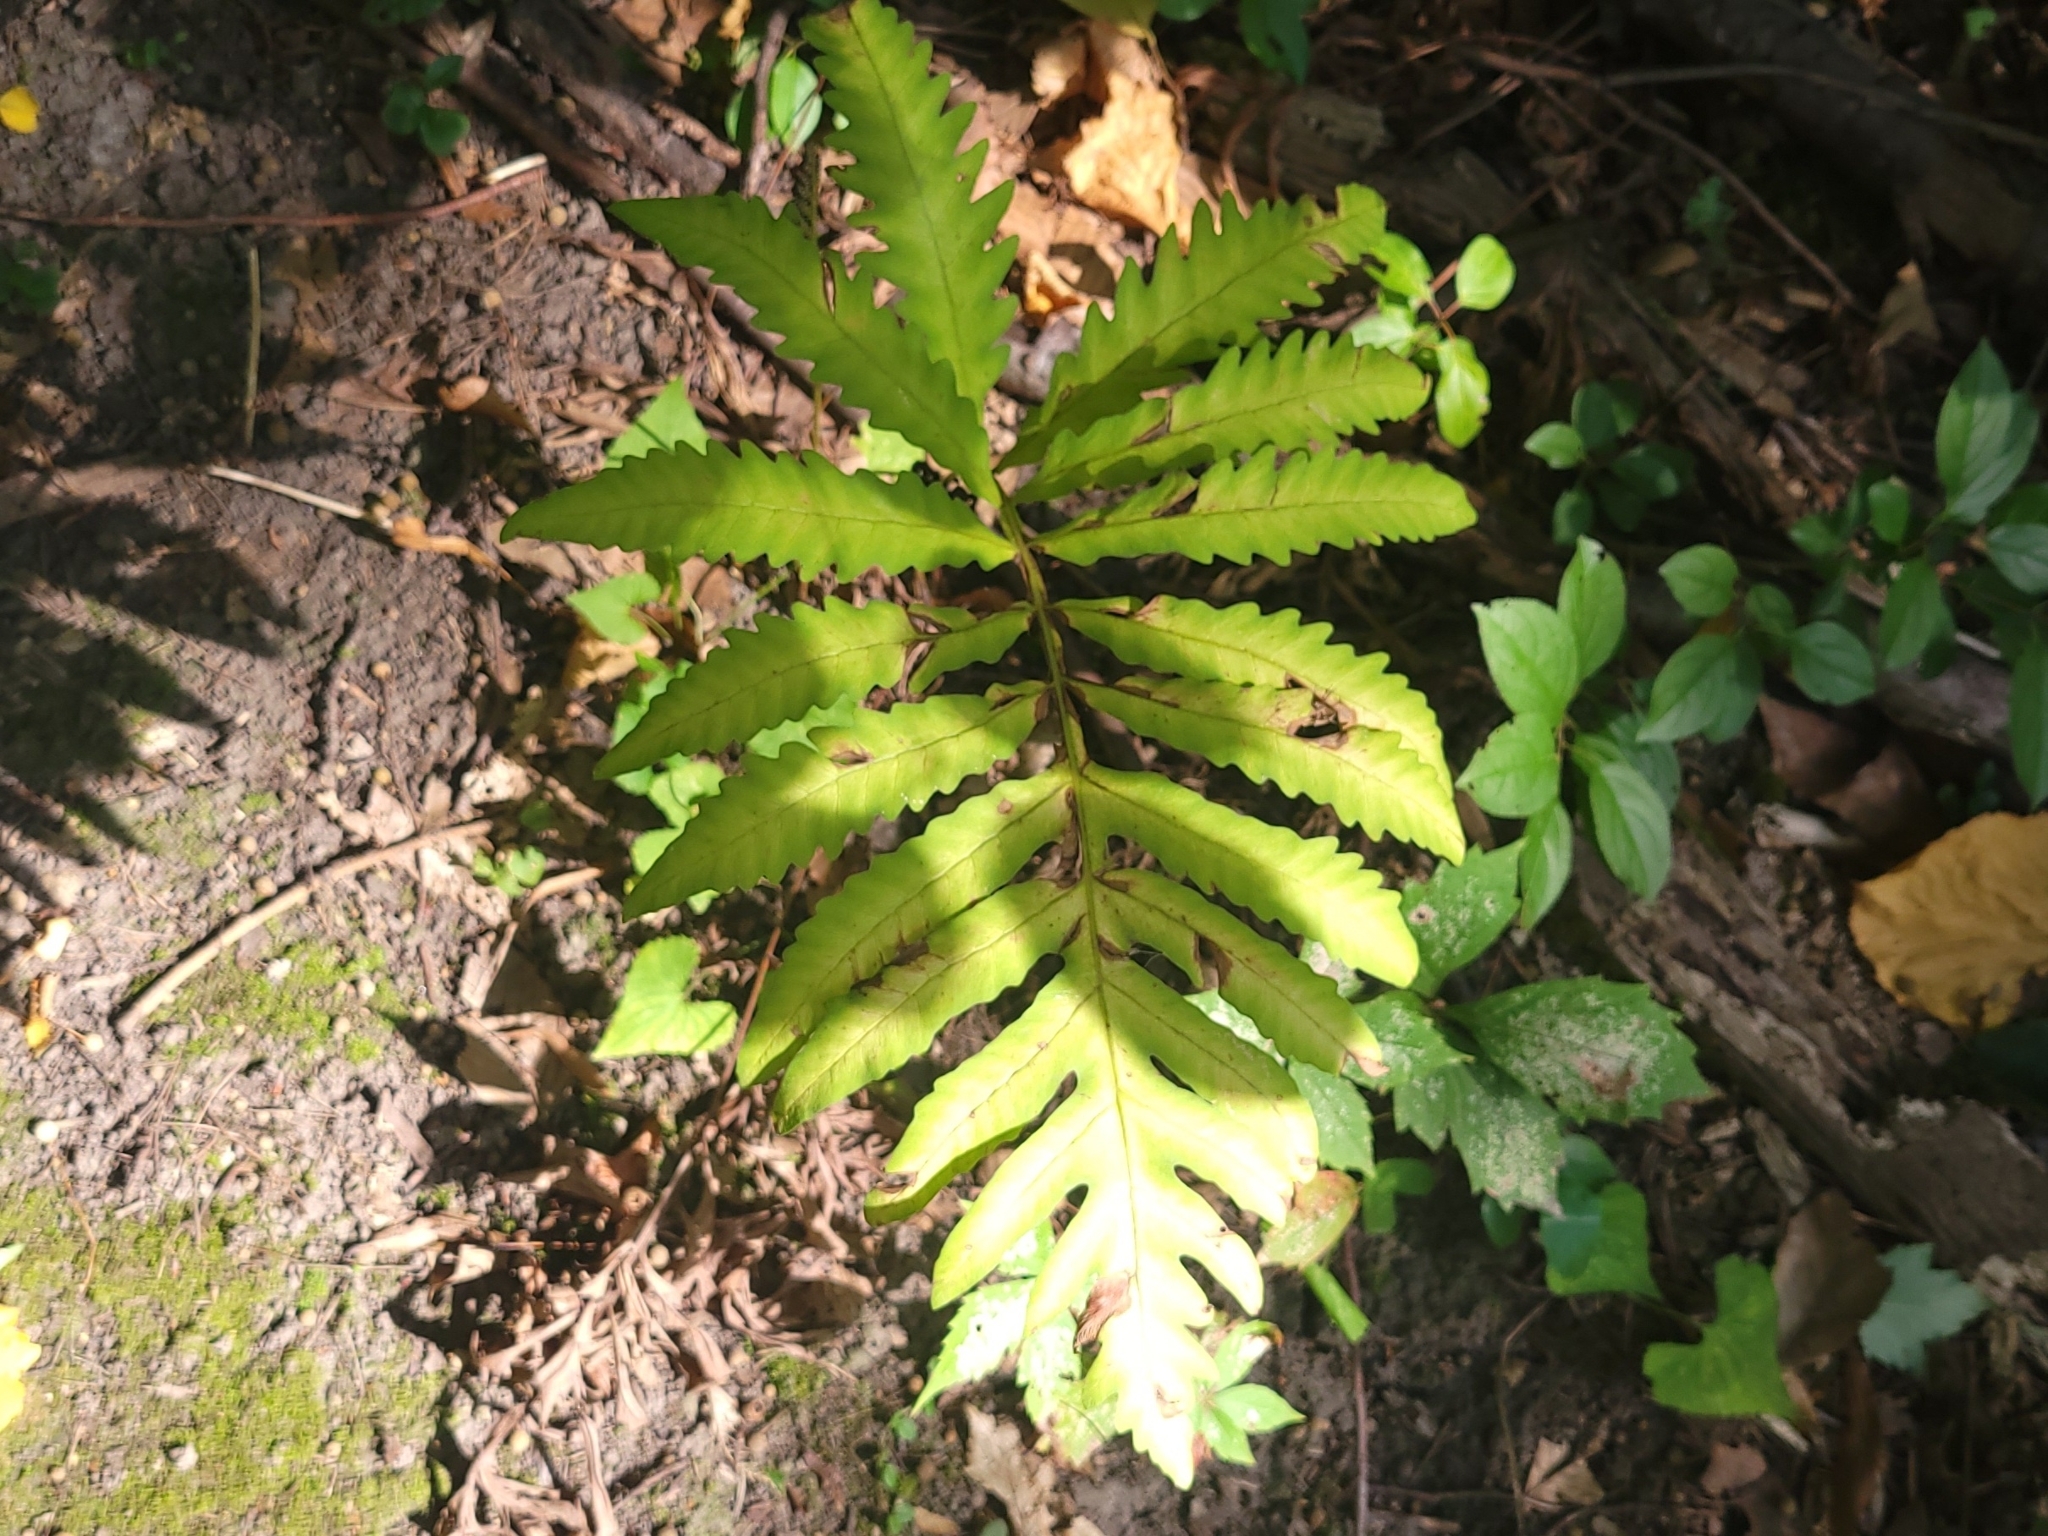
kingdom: Plantae
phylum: Tracheophyta
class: Polypodiopsida
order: Polypodiales
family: Onocleaceae
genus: Onoclea
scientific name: Onoclea sensibilis
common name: Sensitive fern
